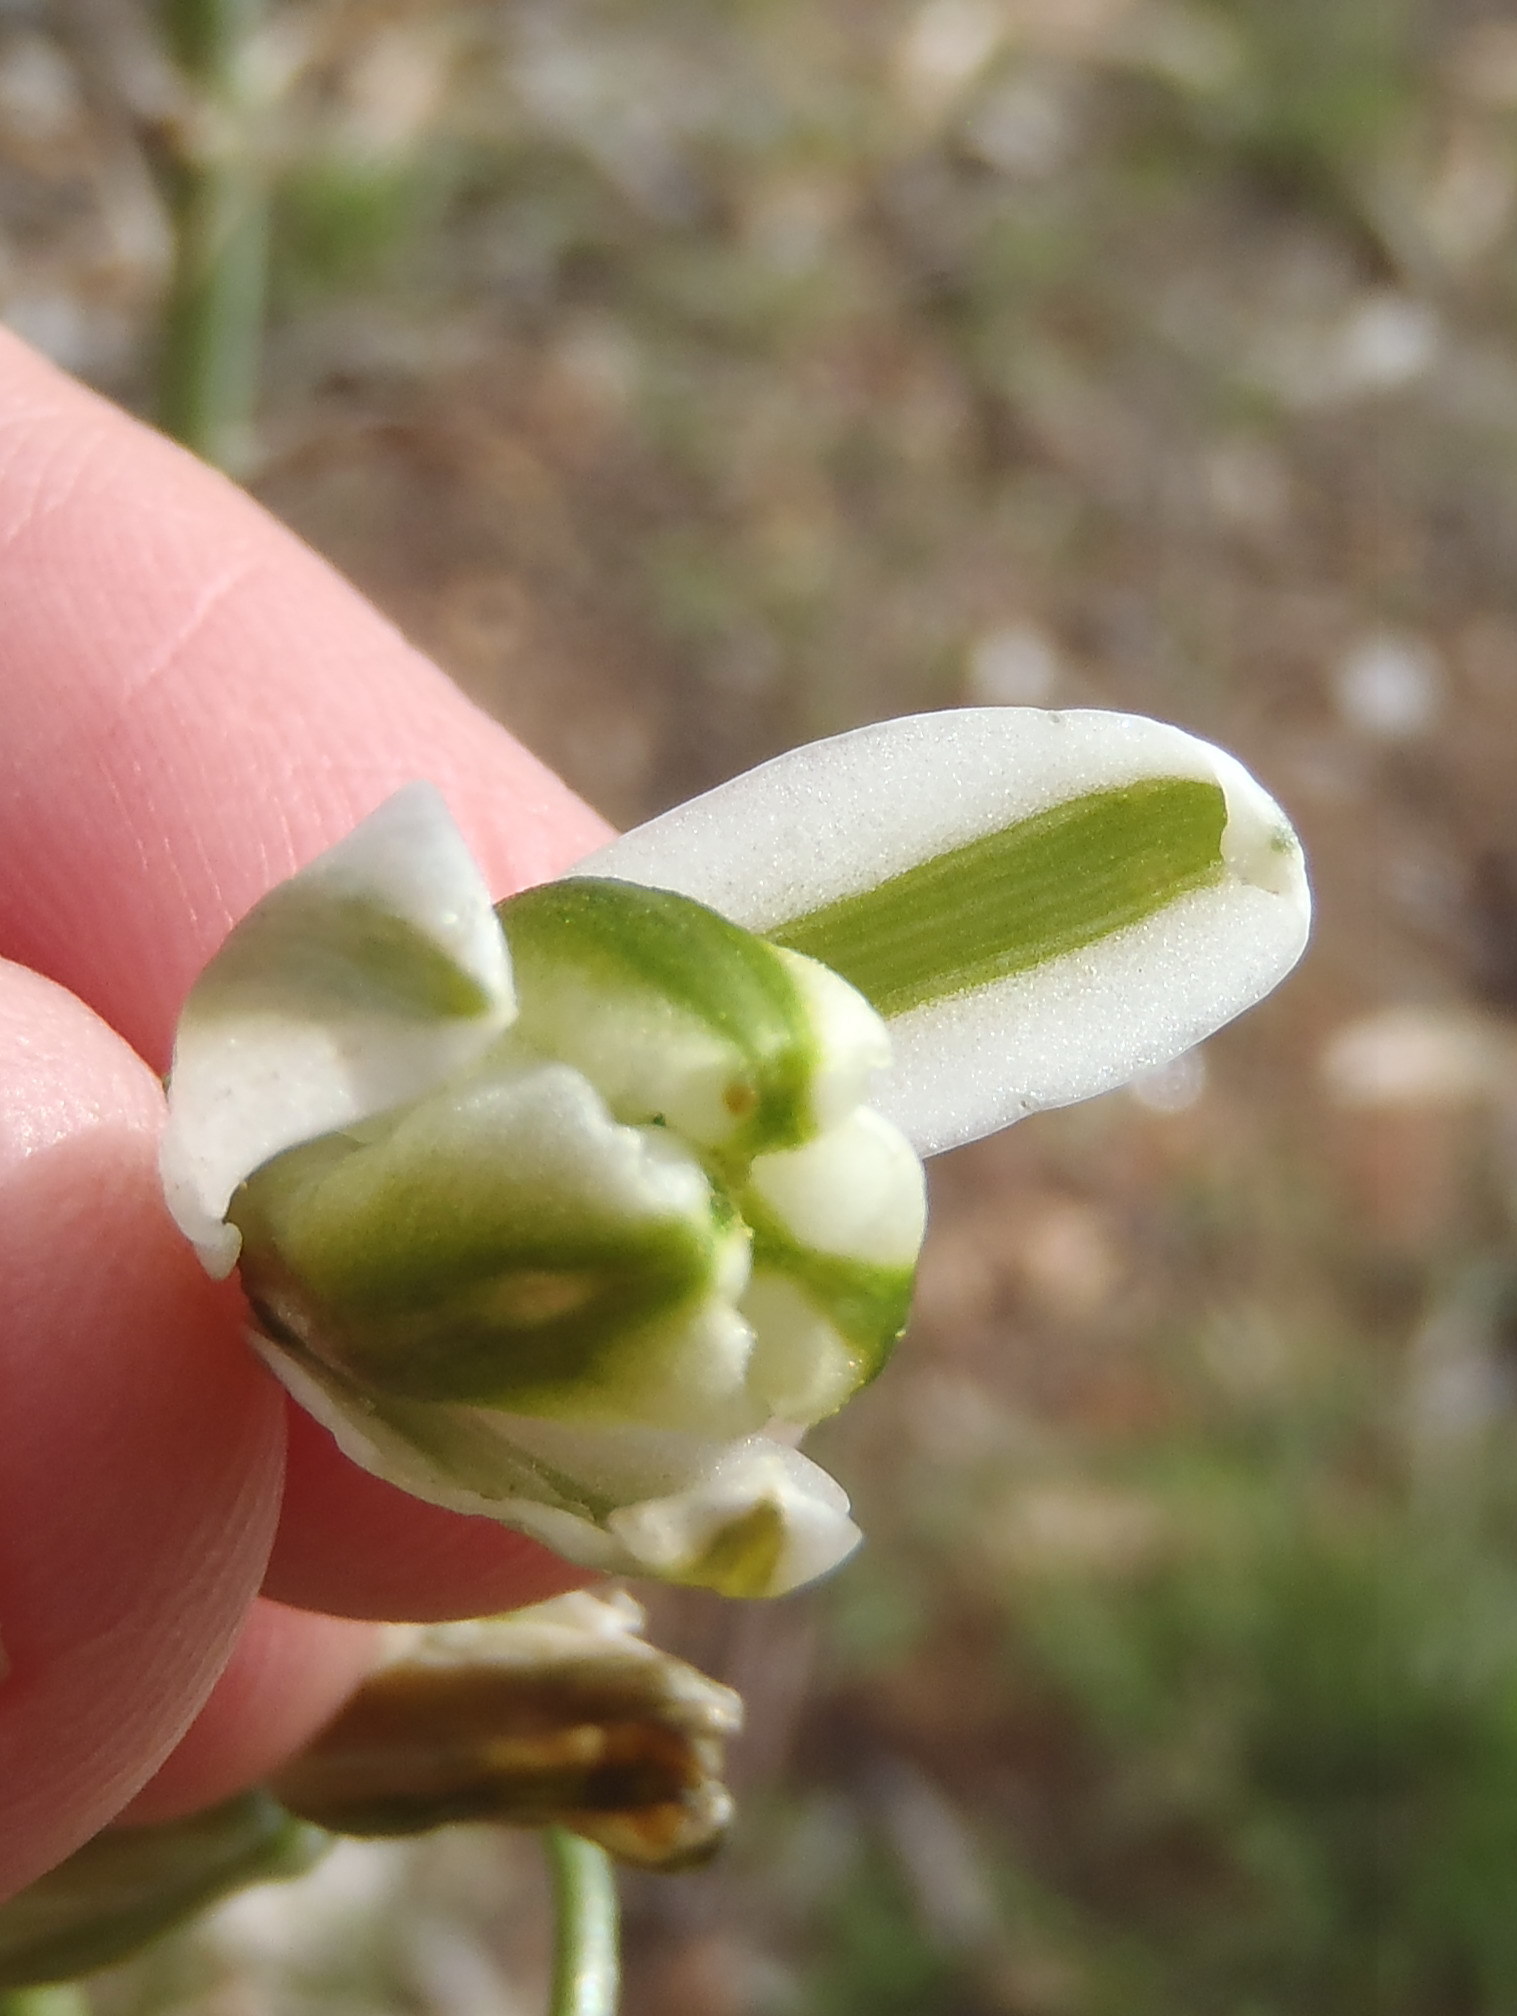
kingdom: Plantae
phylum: Tracheophyta
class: Liliopsida
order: Asparagales
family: Asparagaceae
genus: Albuca
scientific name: Albuca canadensis
